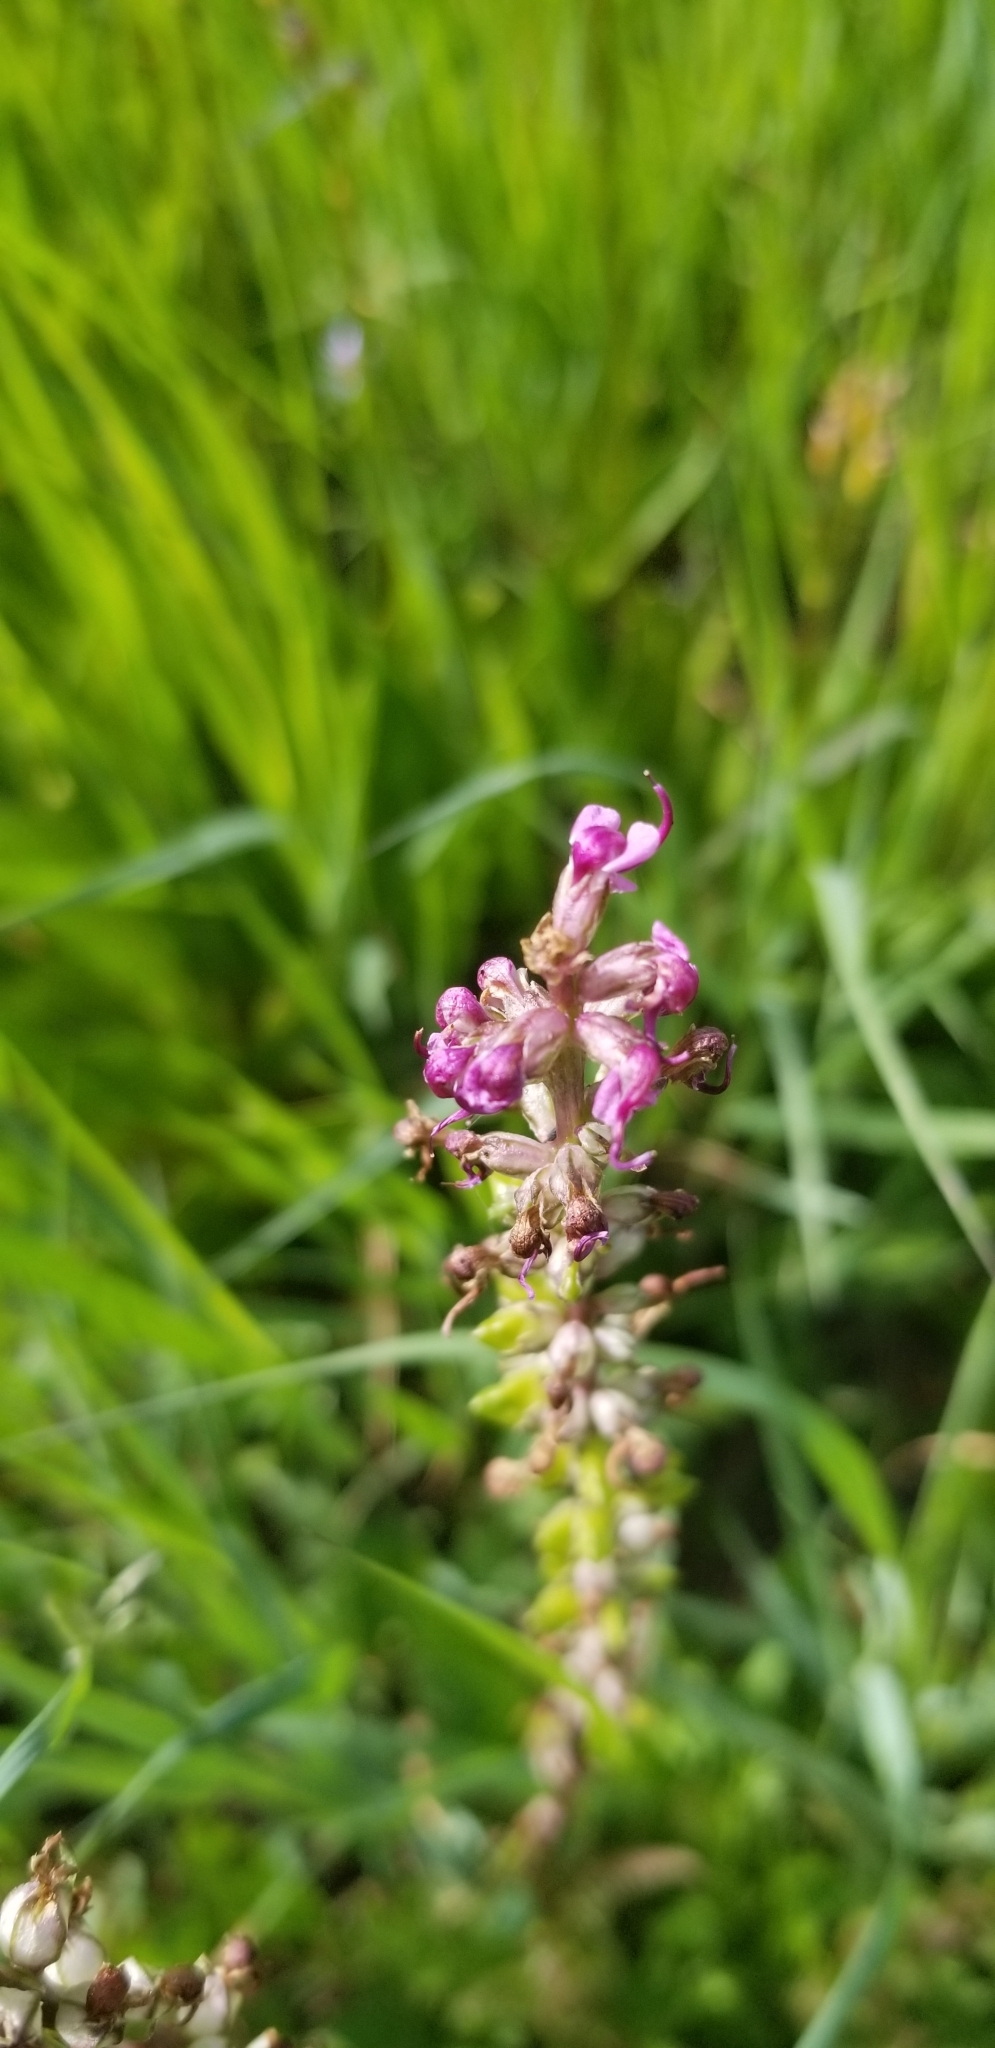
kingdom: Plantae
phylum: Tracheophyta
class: Magnoliopsida
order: Lamiales
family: Orobanchaceae
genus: Pedicularis
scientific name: Pedicularis groenlandica
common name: Elephant's-head
